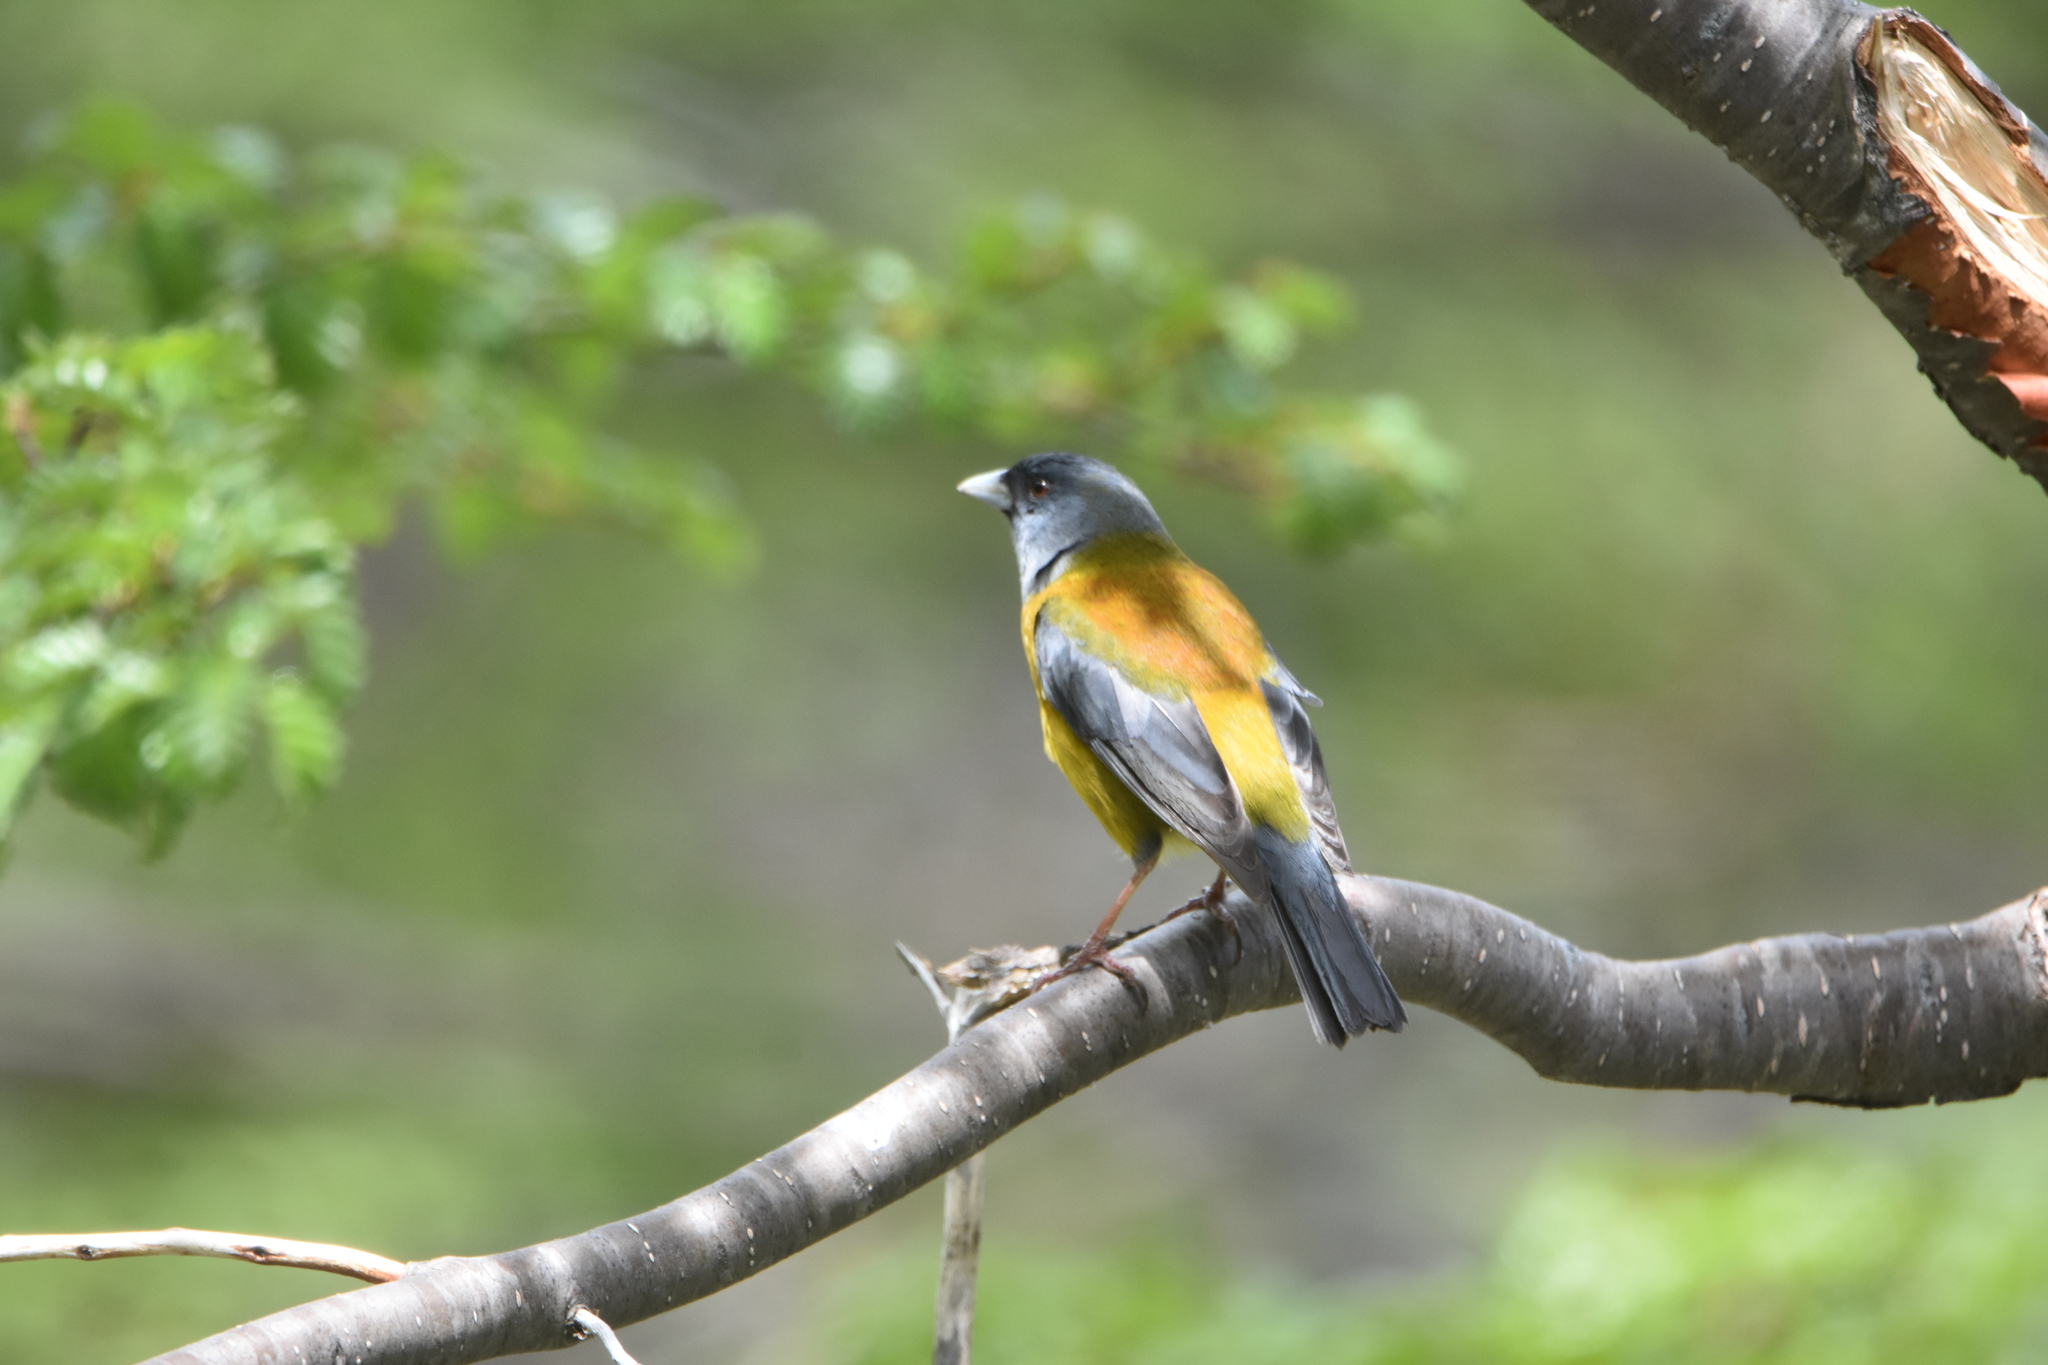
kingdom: Animalia
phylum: Chordata
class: Aves
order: Passeriformes
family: Thraupidae
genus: Phrygilus
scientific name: Phrygilus patagonicus
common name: Patagonian sierra finch
